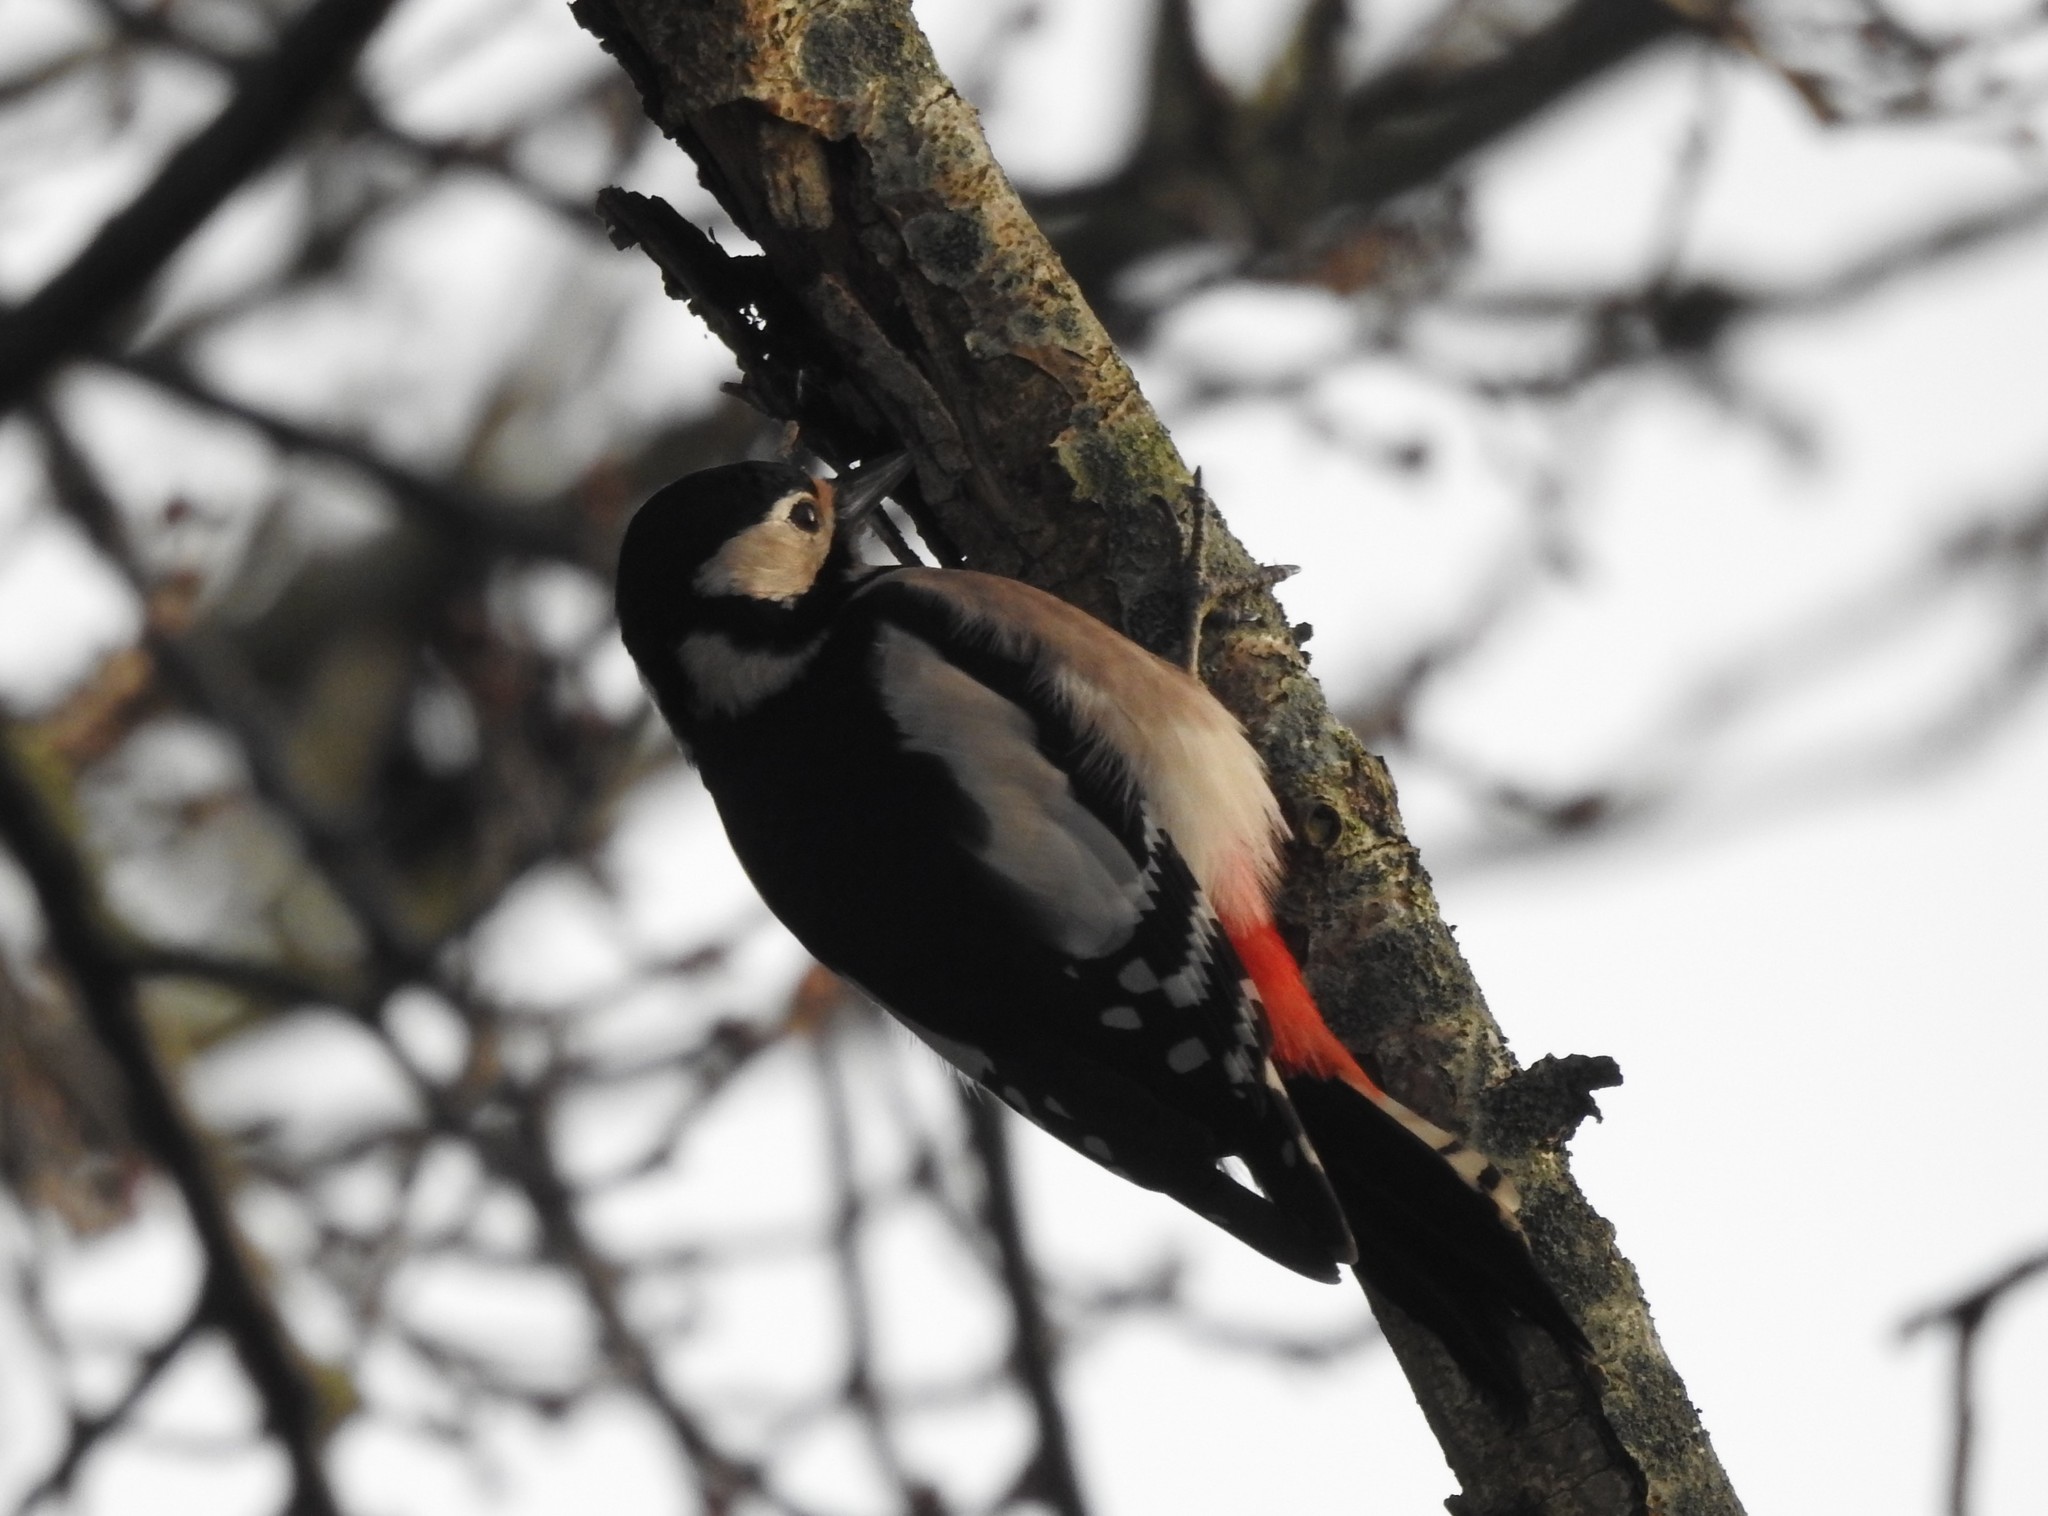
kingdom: Animalia
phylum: Chordata
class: Aves
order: Piciformes
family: Picidae
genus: Dendrocopos
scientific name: Dendrocopos major
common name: Great spotted woodpecker
